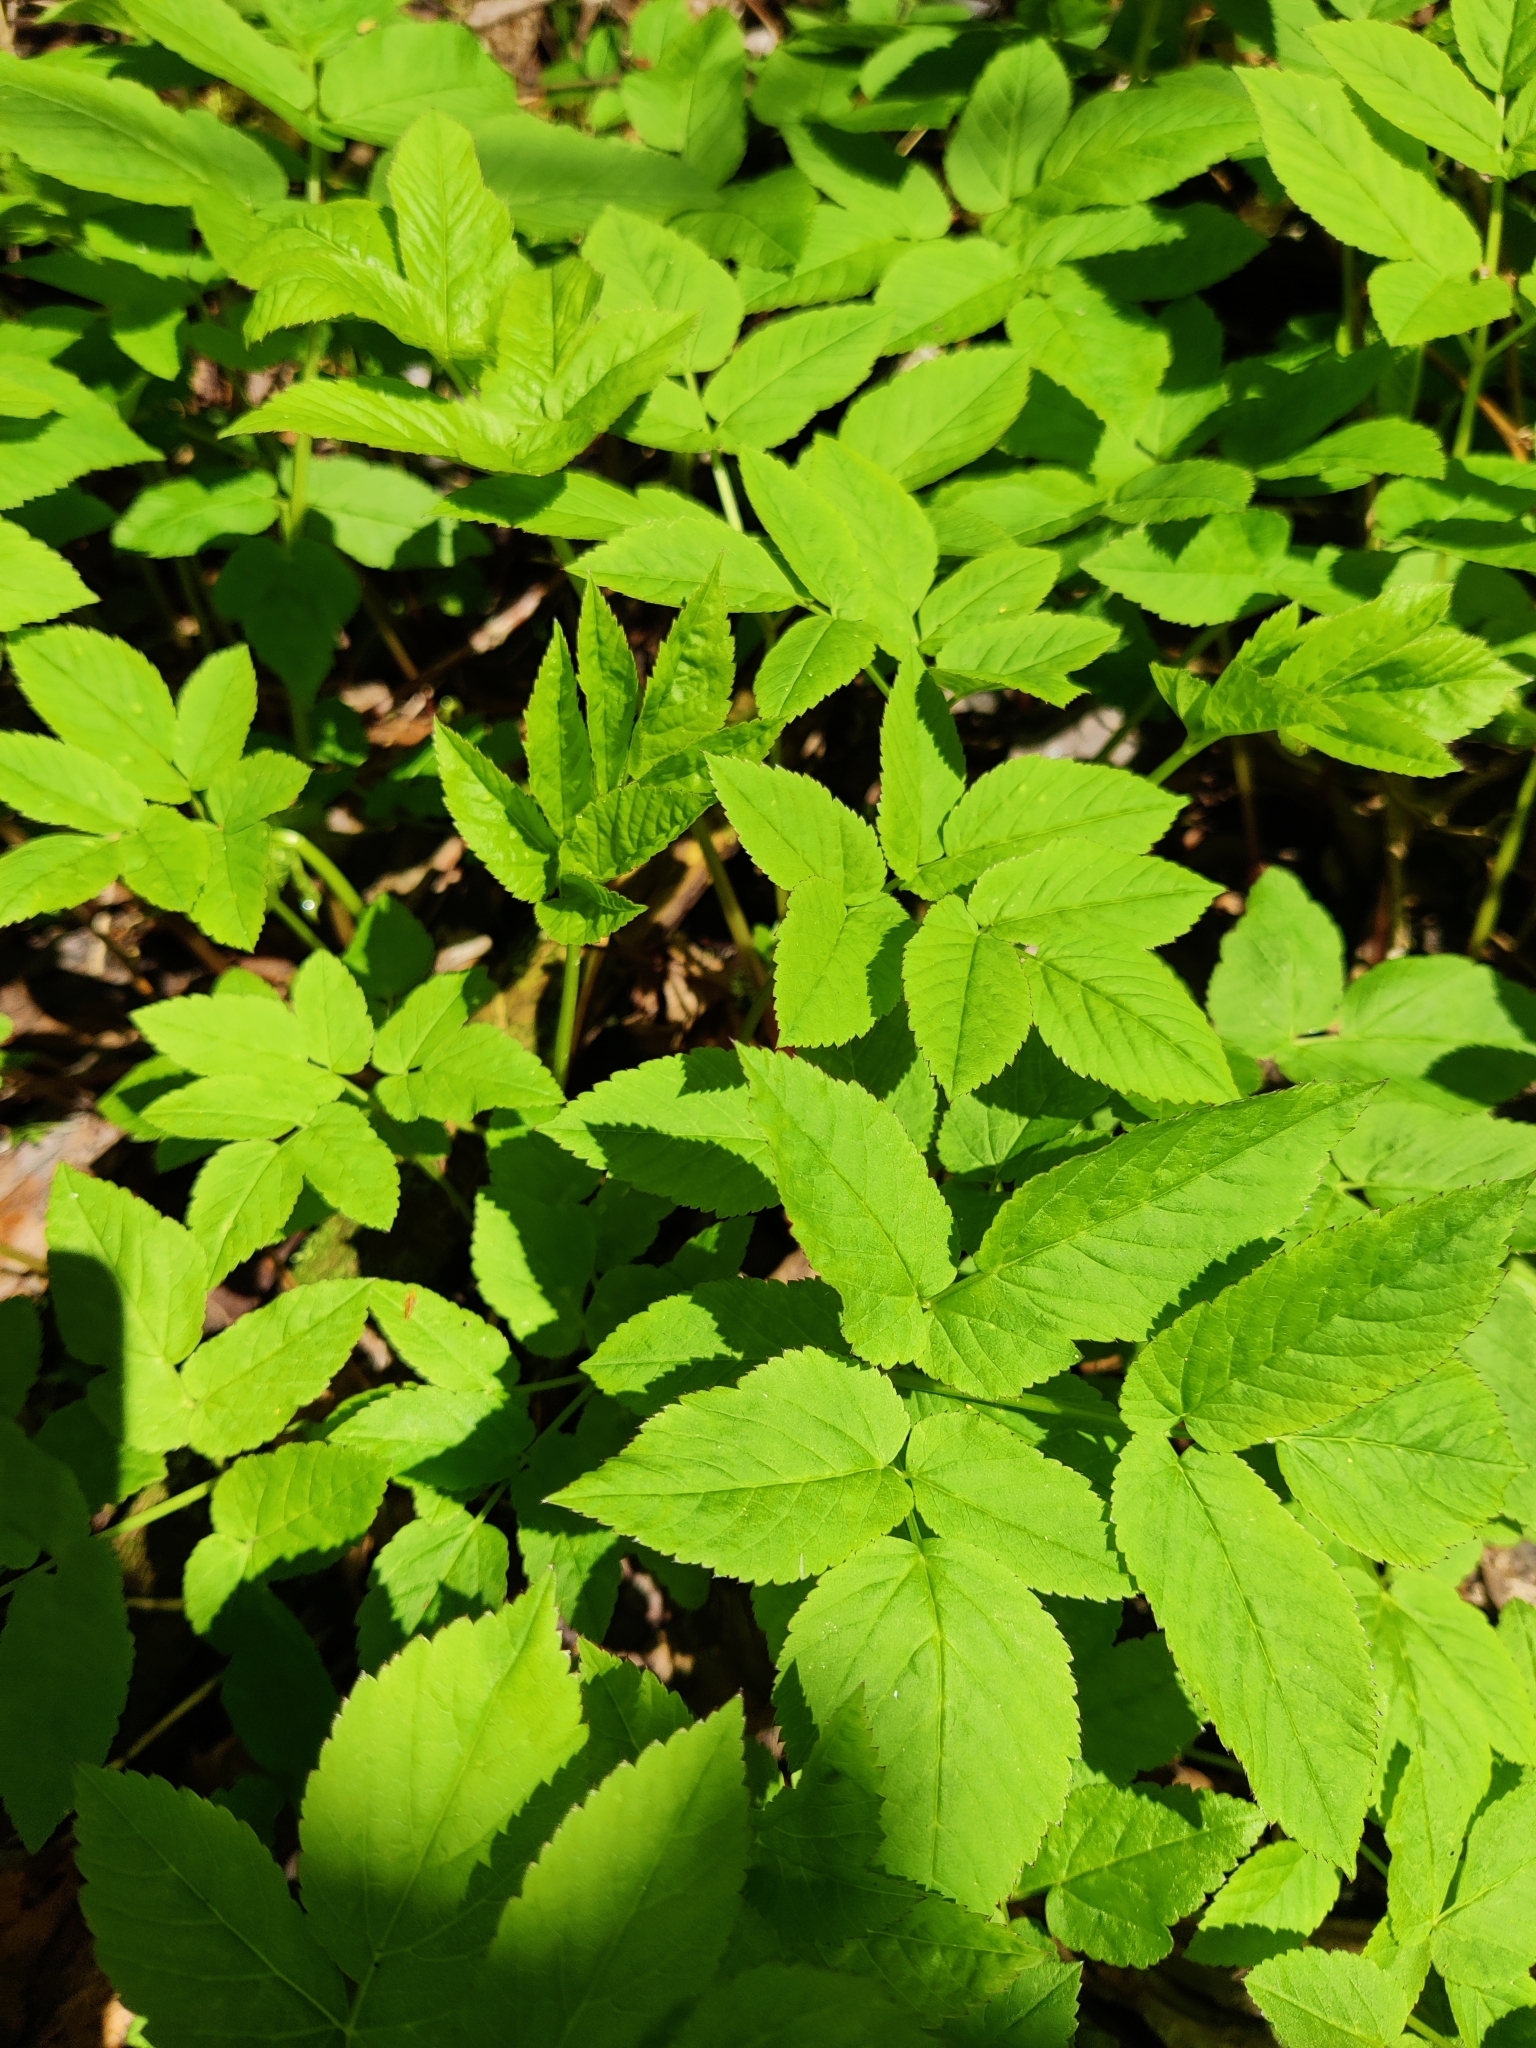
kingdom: Plantae
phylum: Tracheophyta
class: Magnoliopsida
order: Apiales
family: Apiaceae
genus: Aegopodium
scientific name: Aegopodium podagraria
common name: Ground-elder
